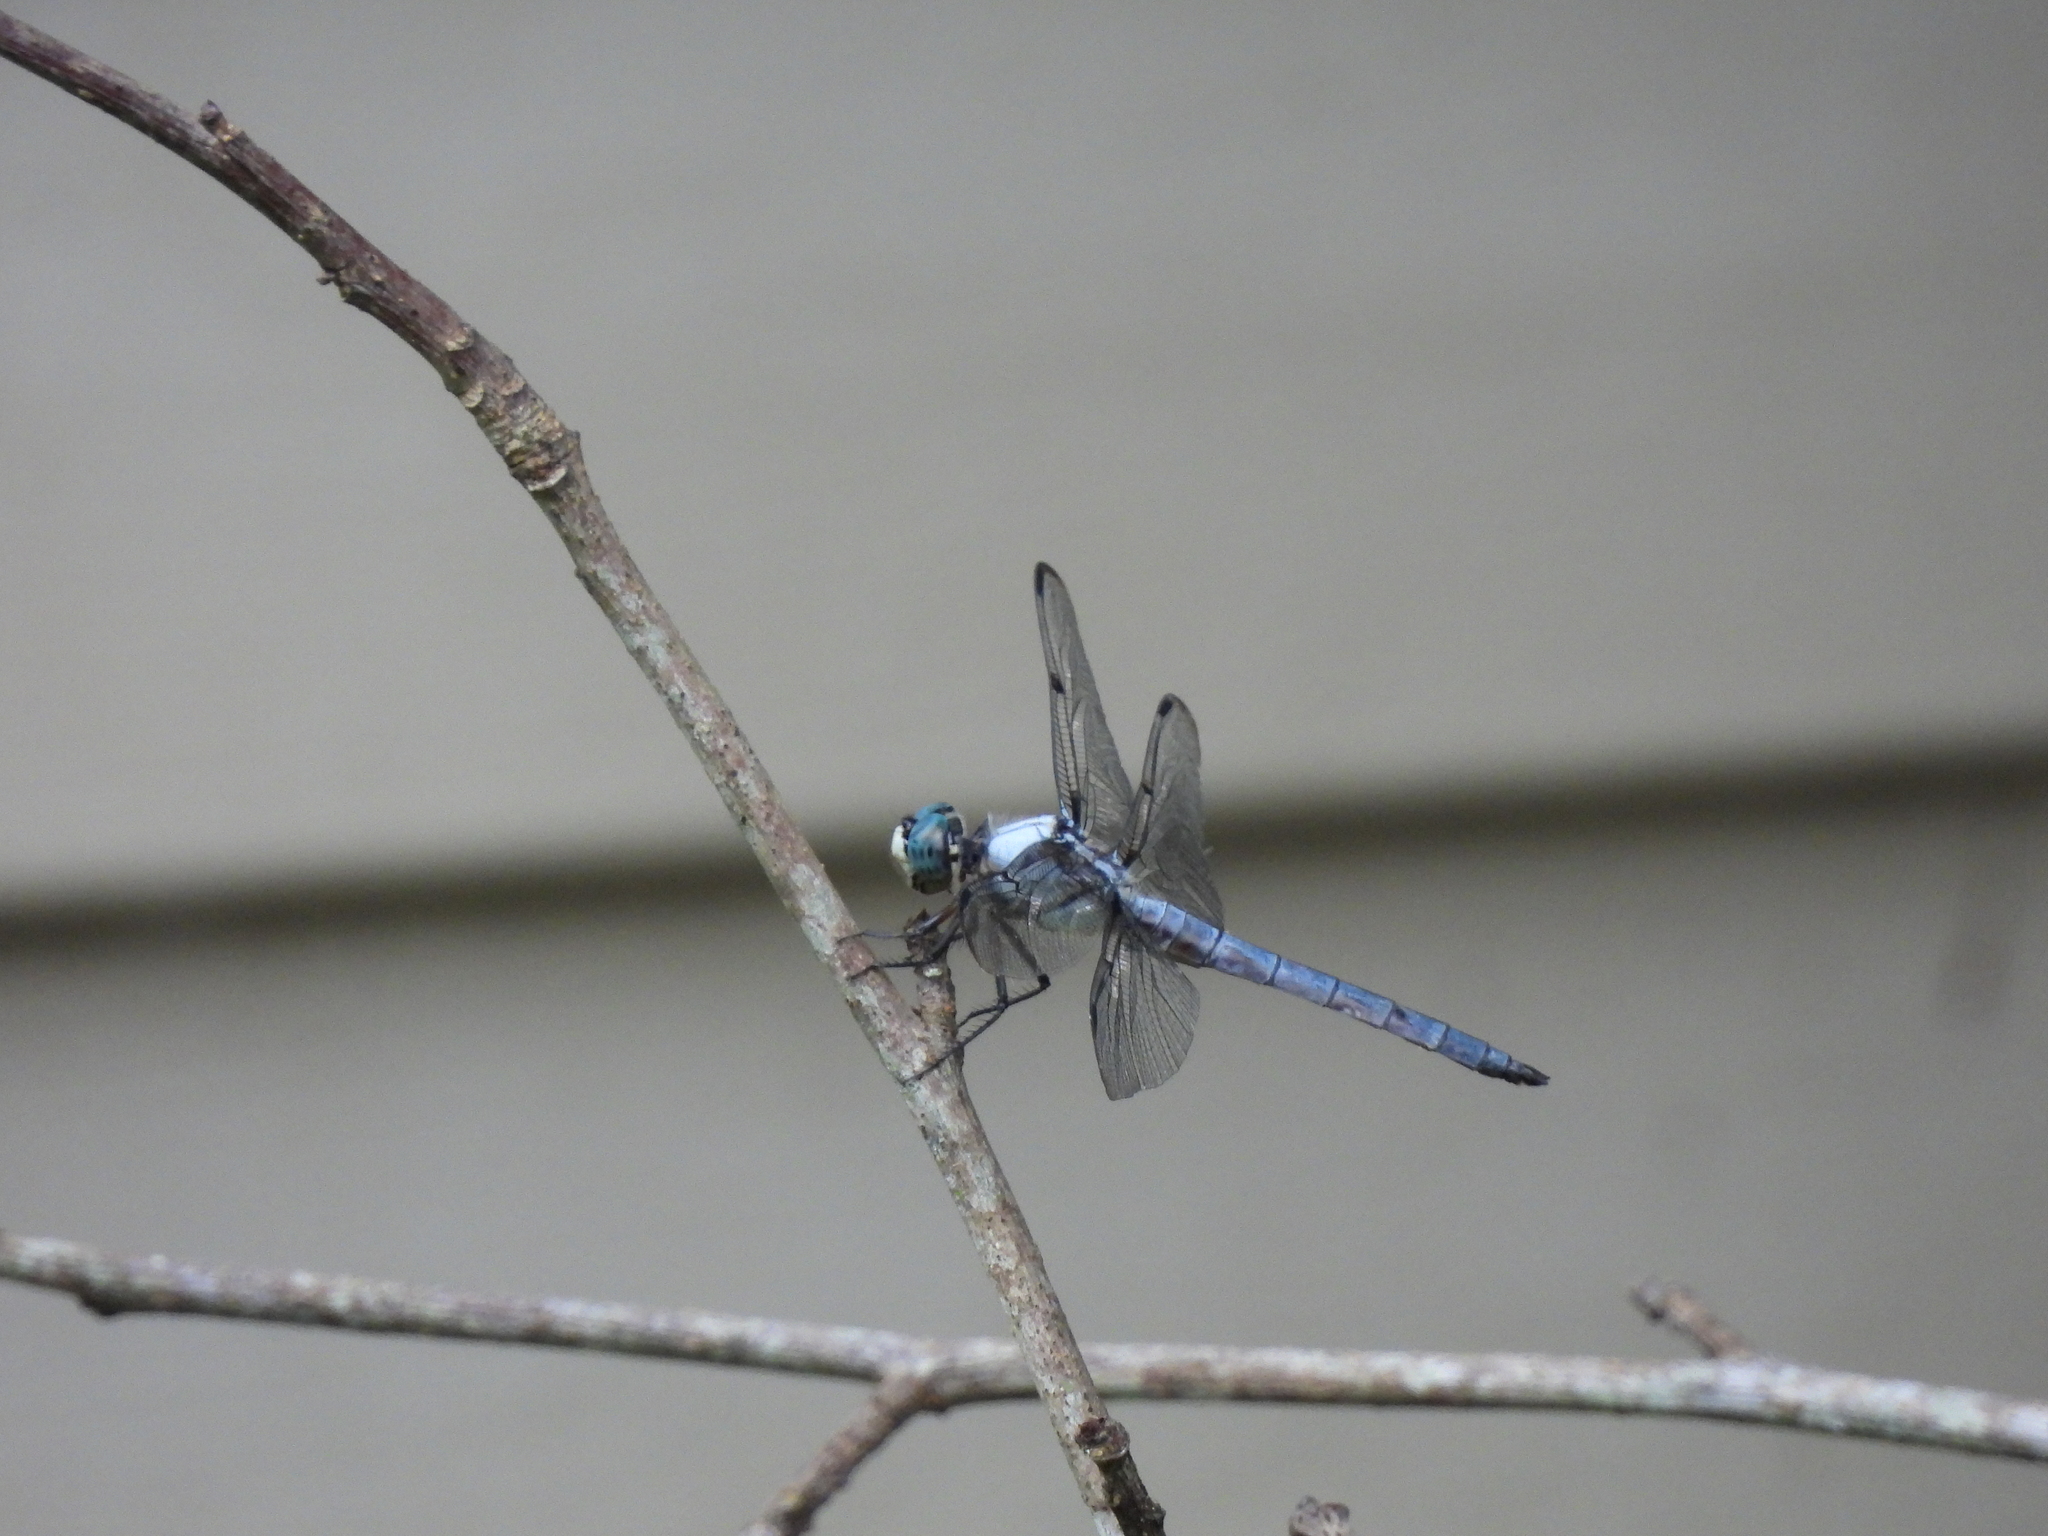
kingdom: Animalia
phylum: Arthropoda
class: Insecta
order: Odonata
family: Libellulidae
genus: Libellula
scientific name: Libellula vibrans
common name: Great blue skimmer
